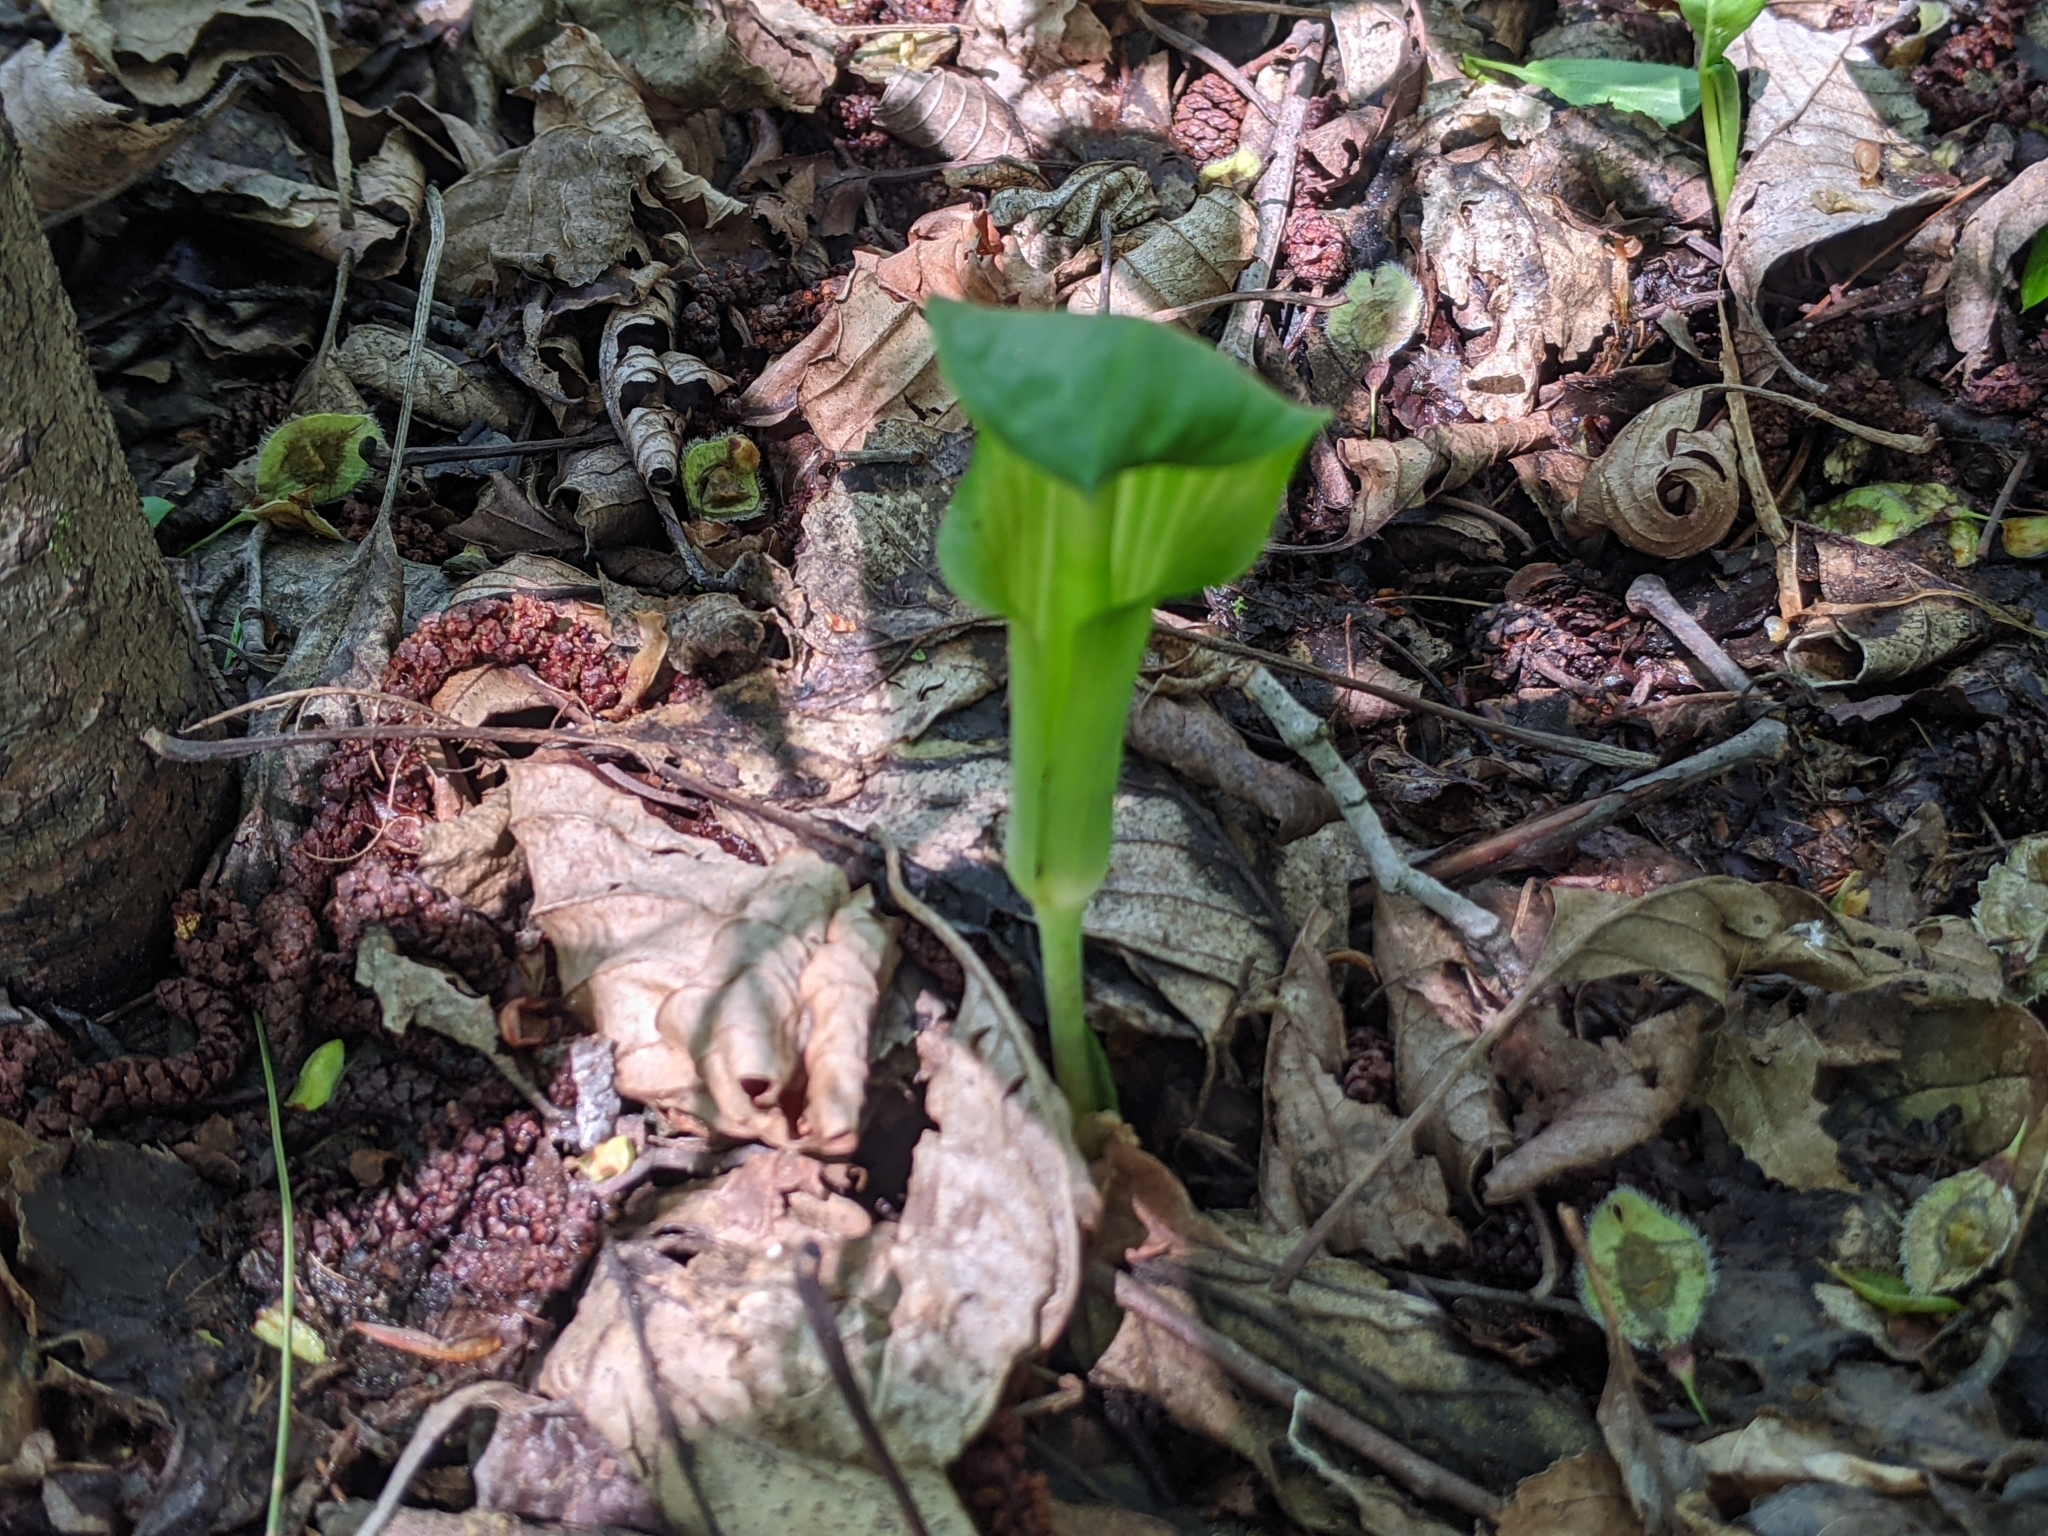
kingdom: Plantae
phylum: Tracheophyta
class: Liliopsida
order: Alismatales
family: Araceae
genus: Arisaema
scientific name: Arisaema triphyllum
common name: Jack-in-the-pulpit
